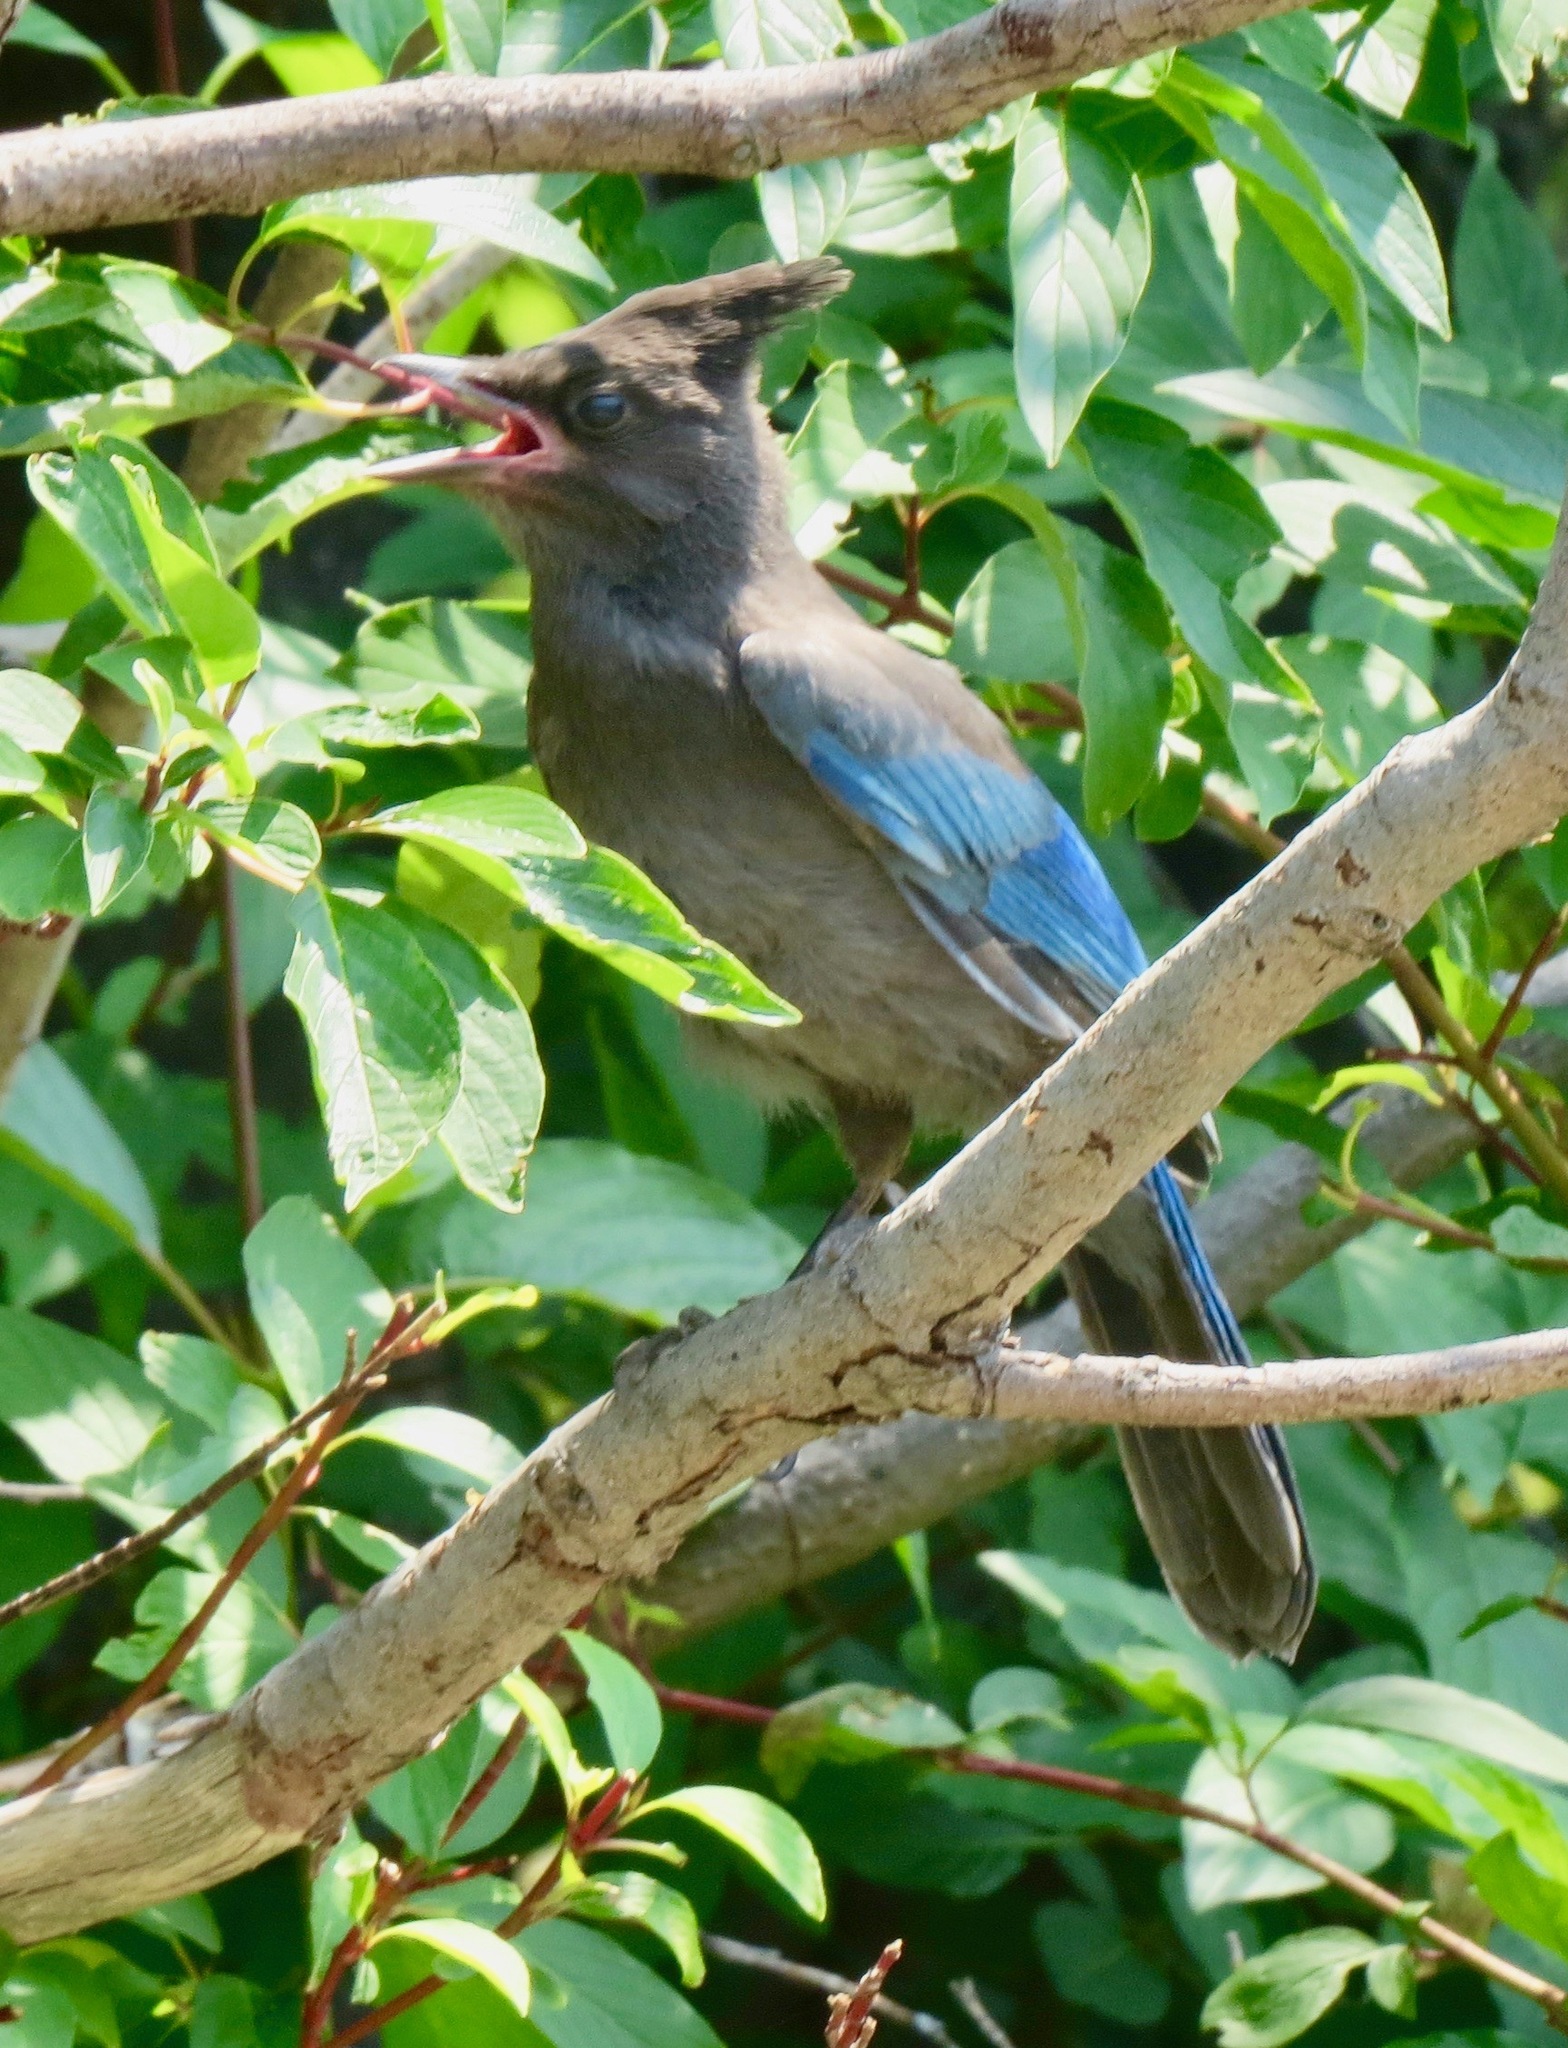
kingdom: Animalia
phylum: Chordata
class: Aves
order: Passeriformes
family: Corvidae
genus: Cyanocitta
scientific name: Cyanocitta stelleri
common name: Steller's jay
